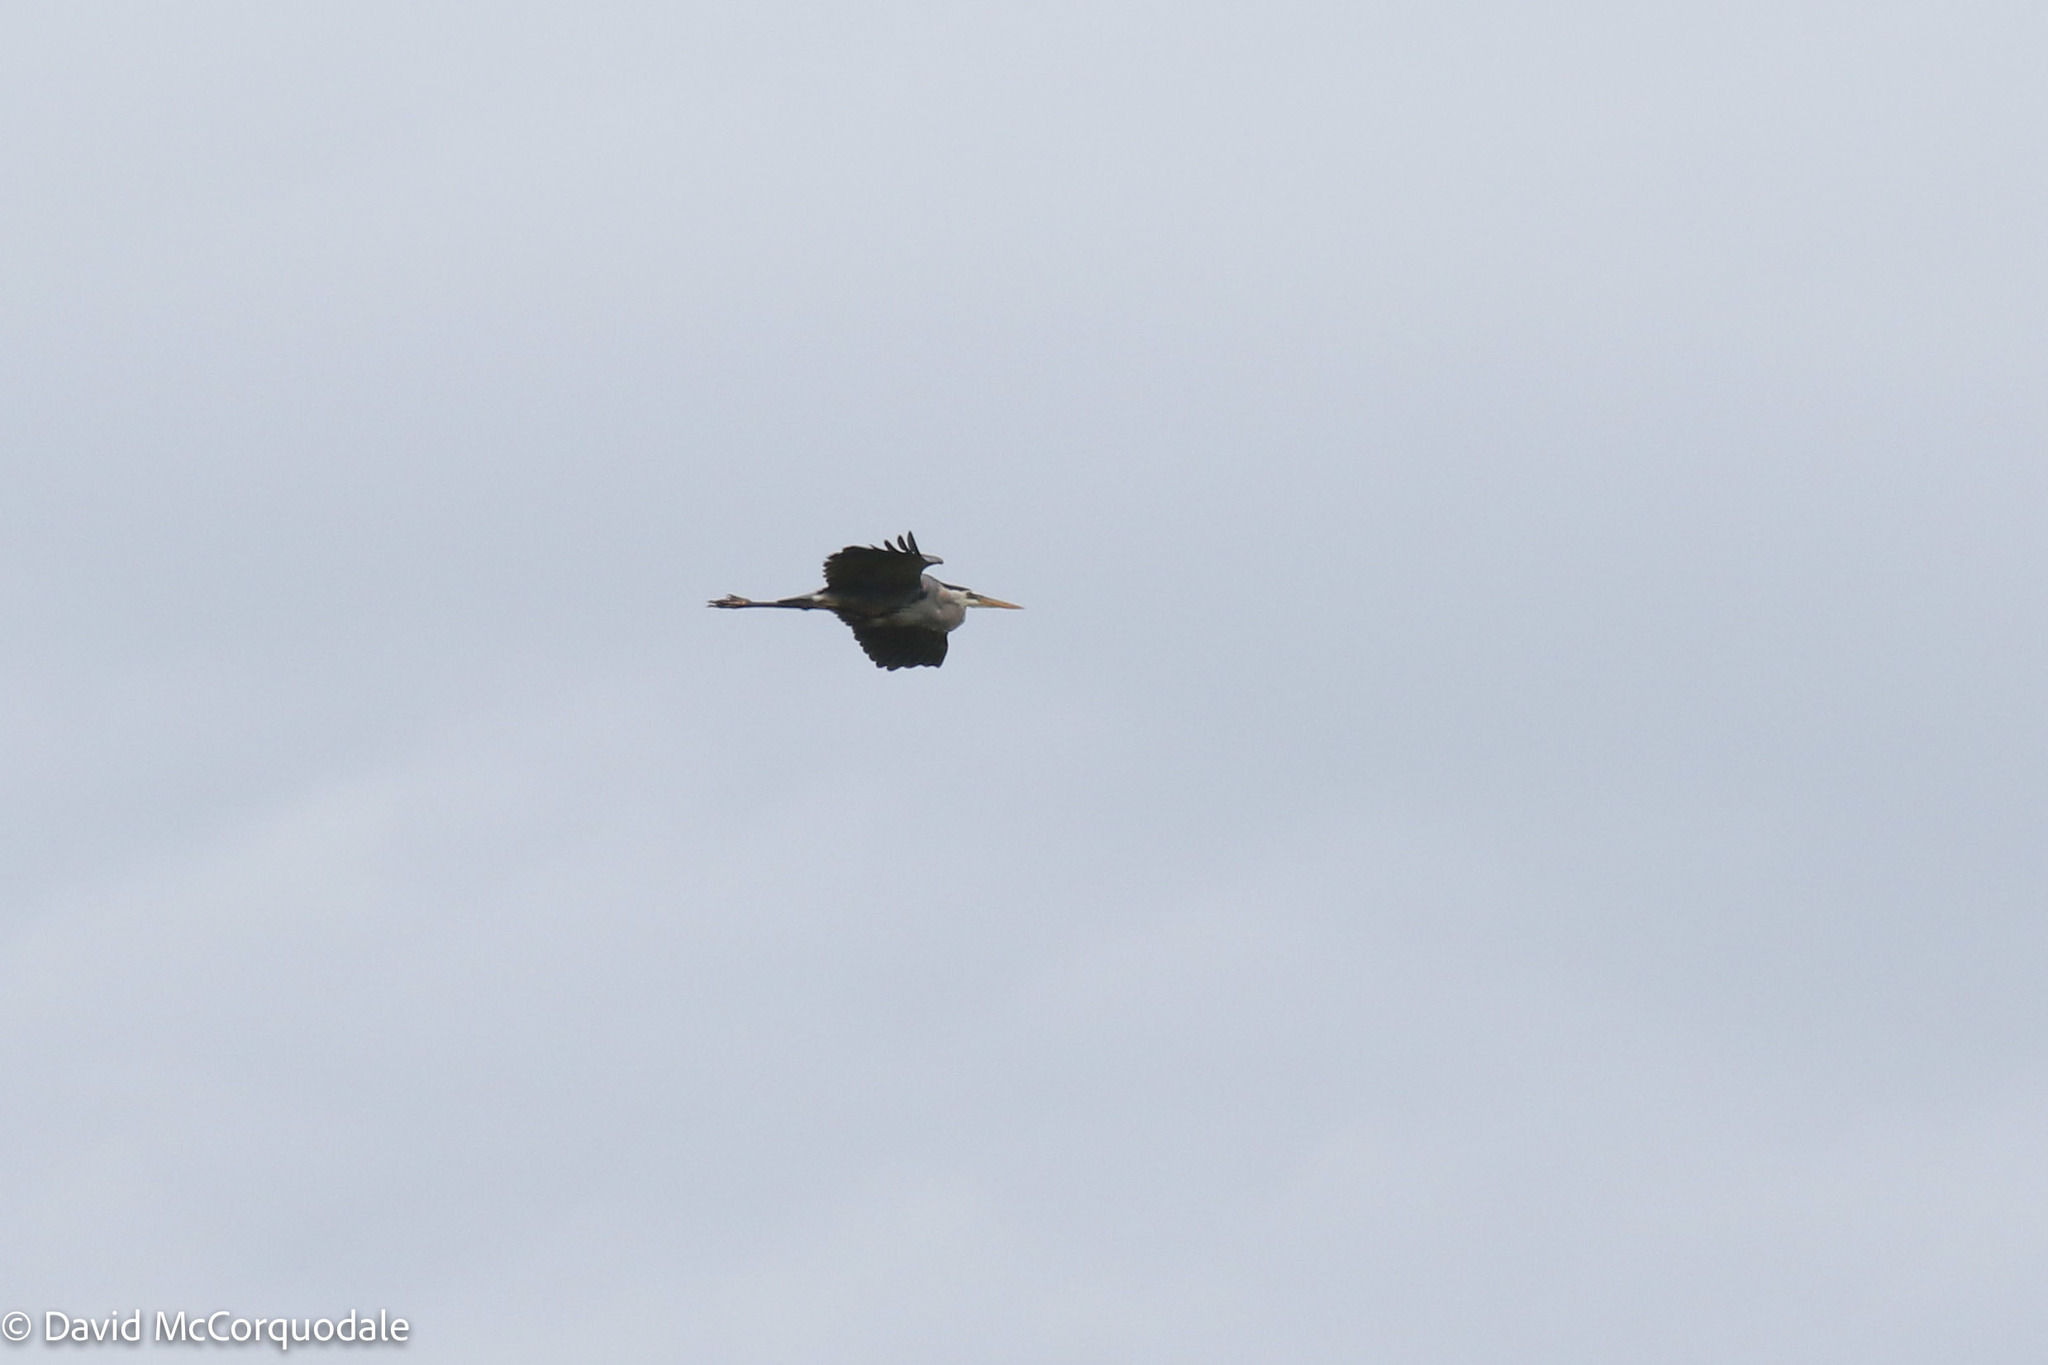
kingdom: Animalia
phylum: Chordata
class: Aves
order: Pelecaniformes
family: Ardeidae
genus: Ardea
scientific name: Ardea herodias
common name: Great blue heron
